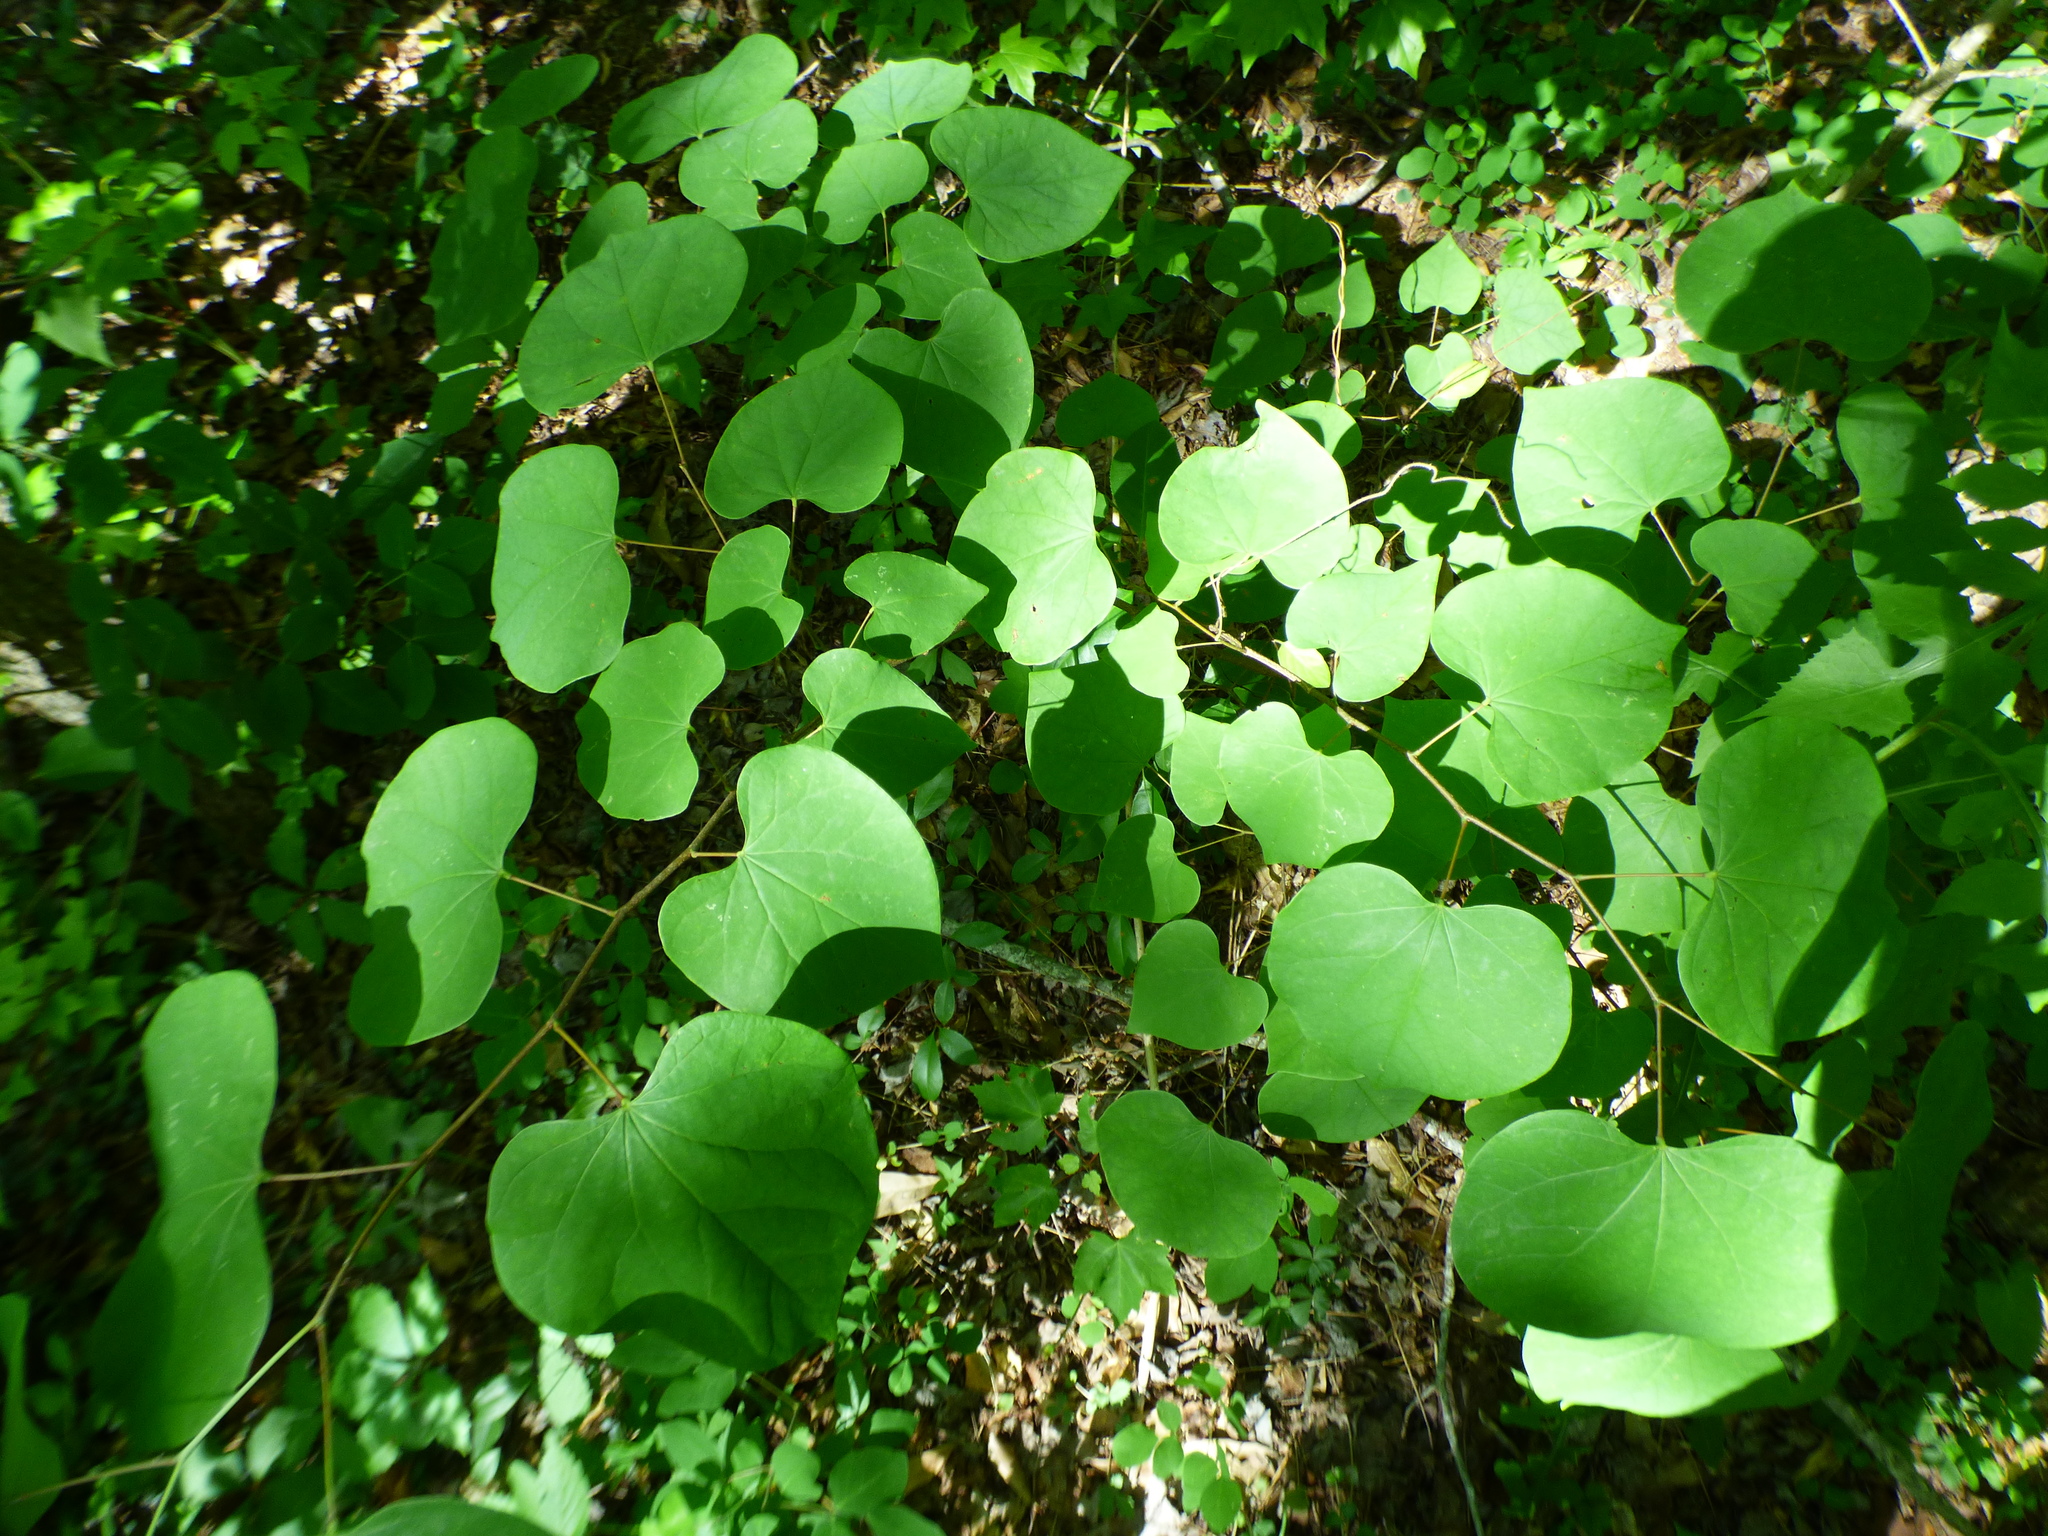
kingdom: Plantae
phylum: Tracheophyta
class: Magnoliopsida
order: Fabales
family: Fabaceae
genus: Cercis
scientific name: Cercis canadensis
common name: Eastern redbud
